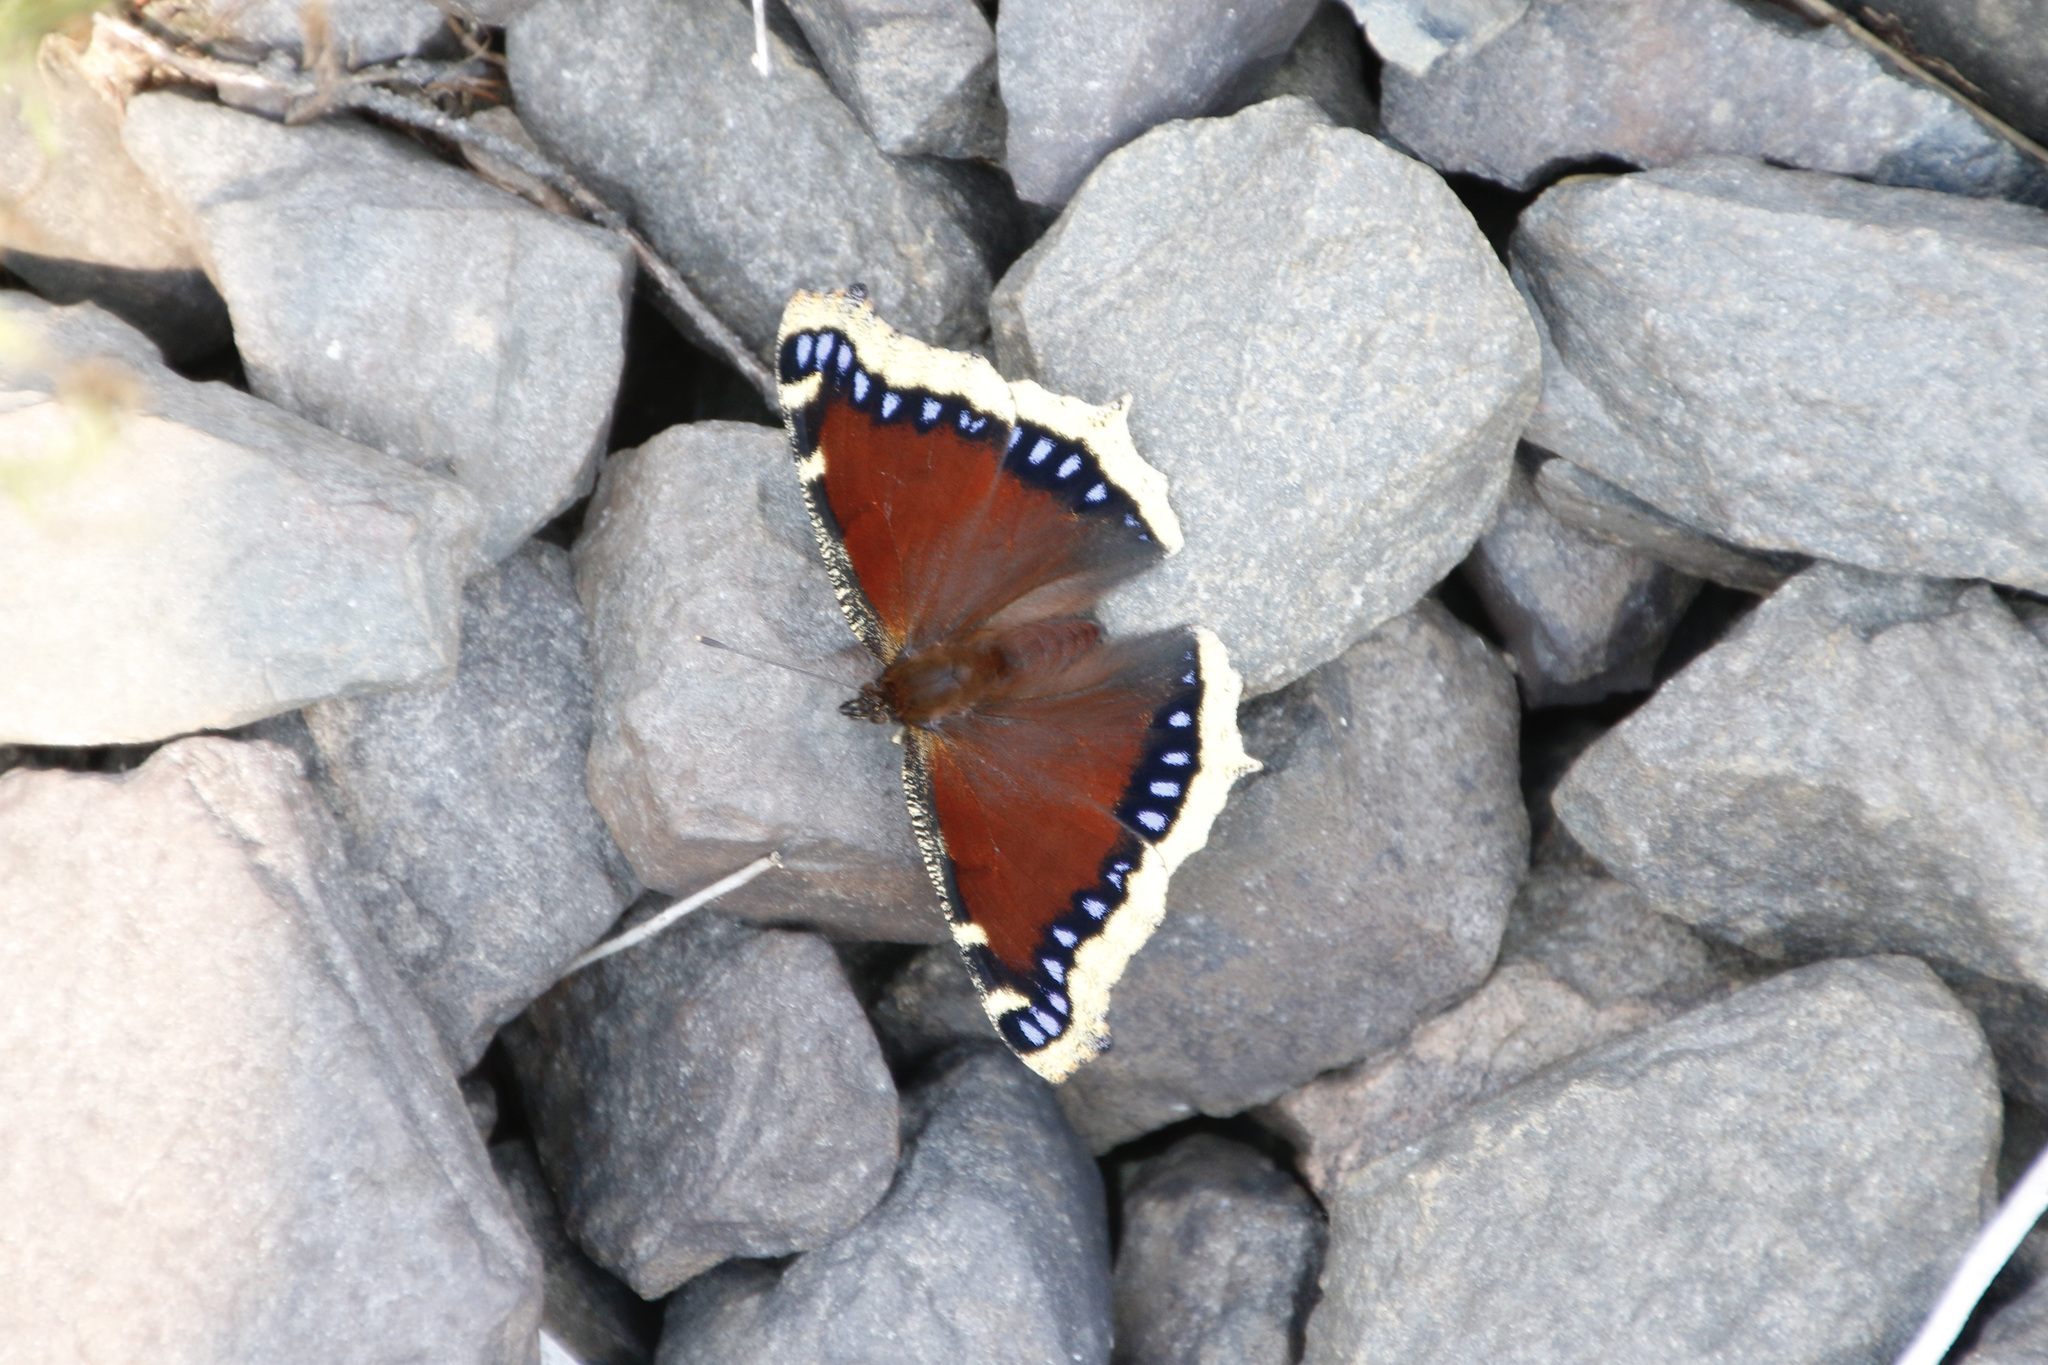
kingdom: Animalia
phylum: Arthropoda
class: Insecta
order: Lepidoptera
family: Nymphalidae
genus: Nymphalis
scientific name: Nymphalis antiopa
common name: Camberwell beauty
